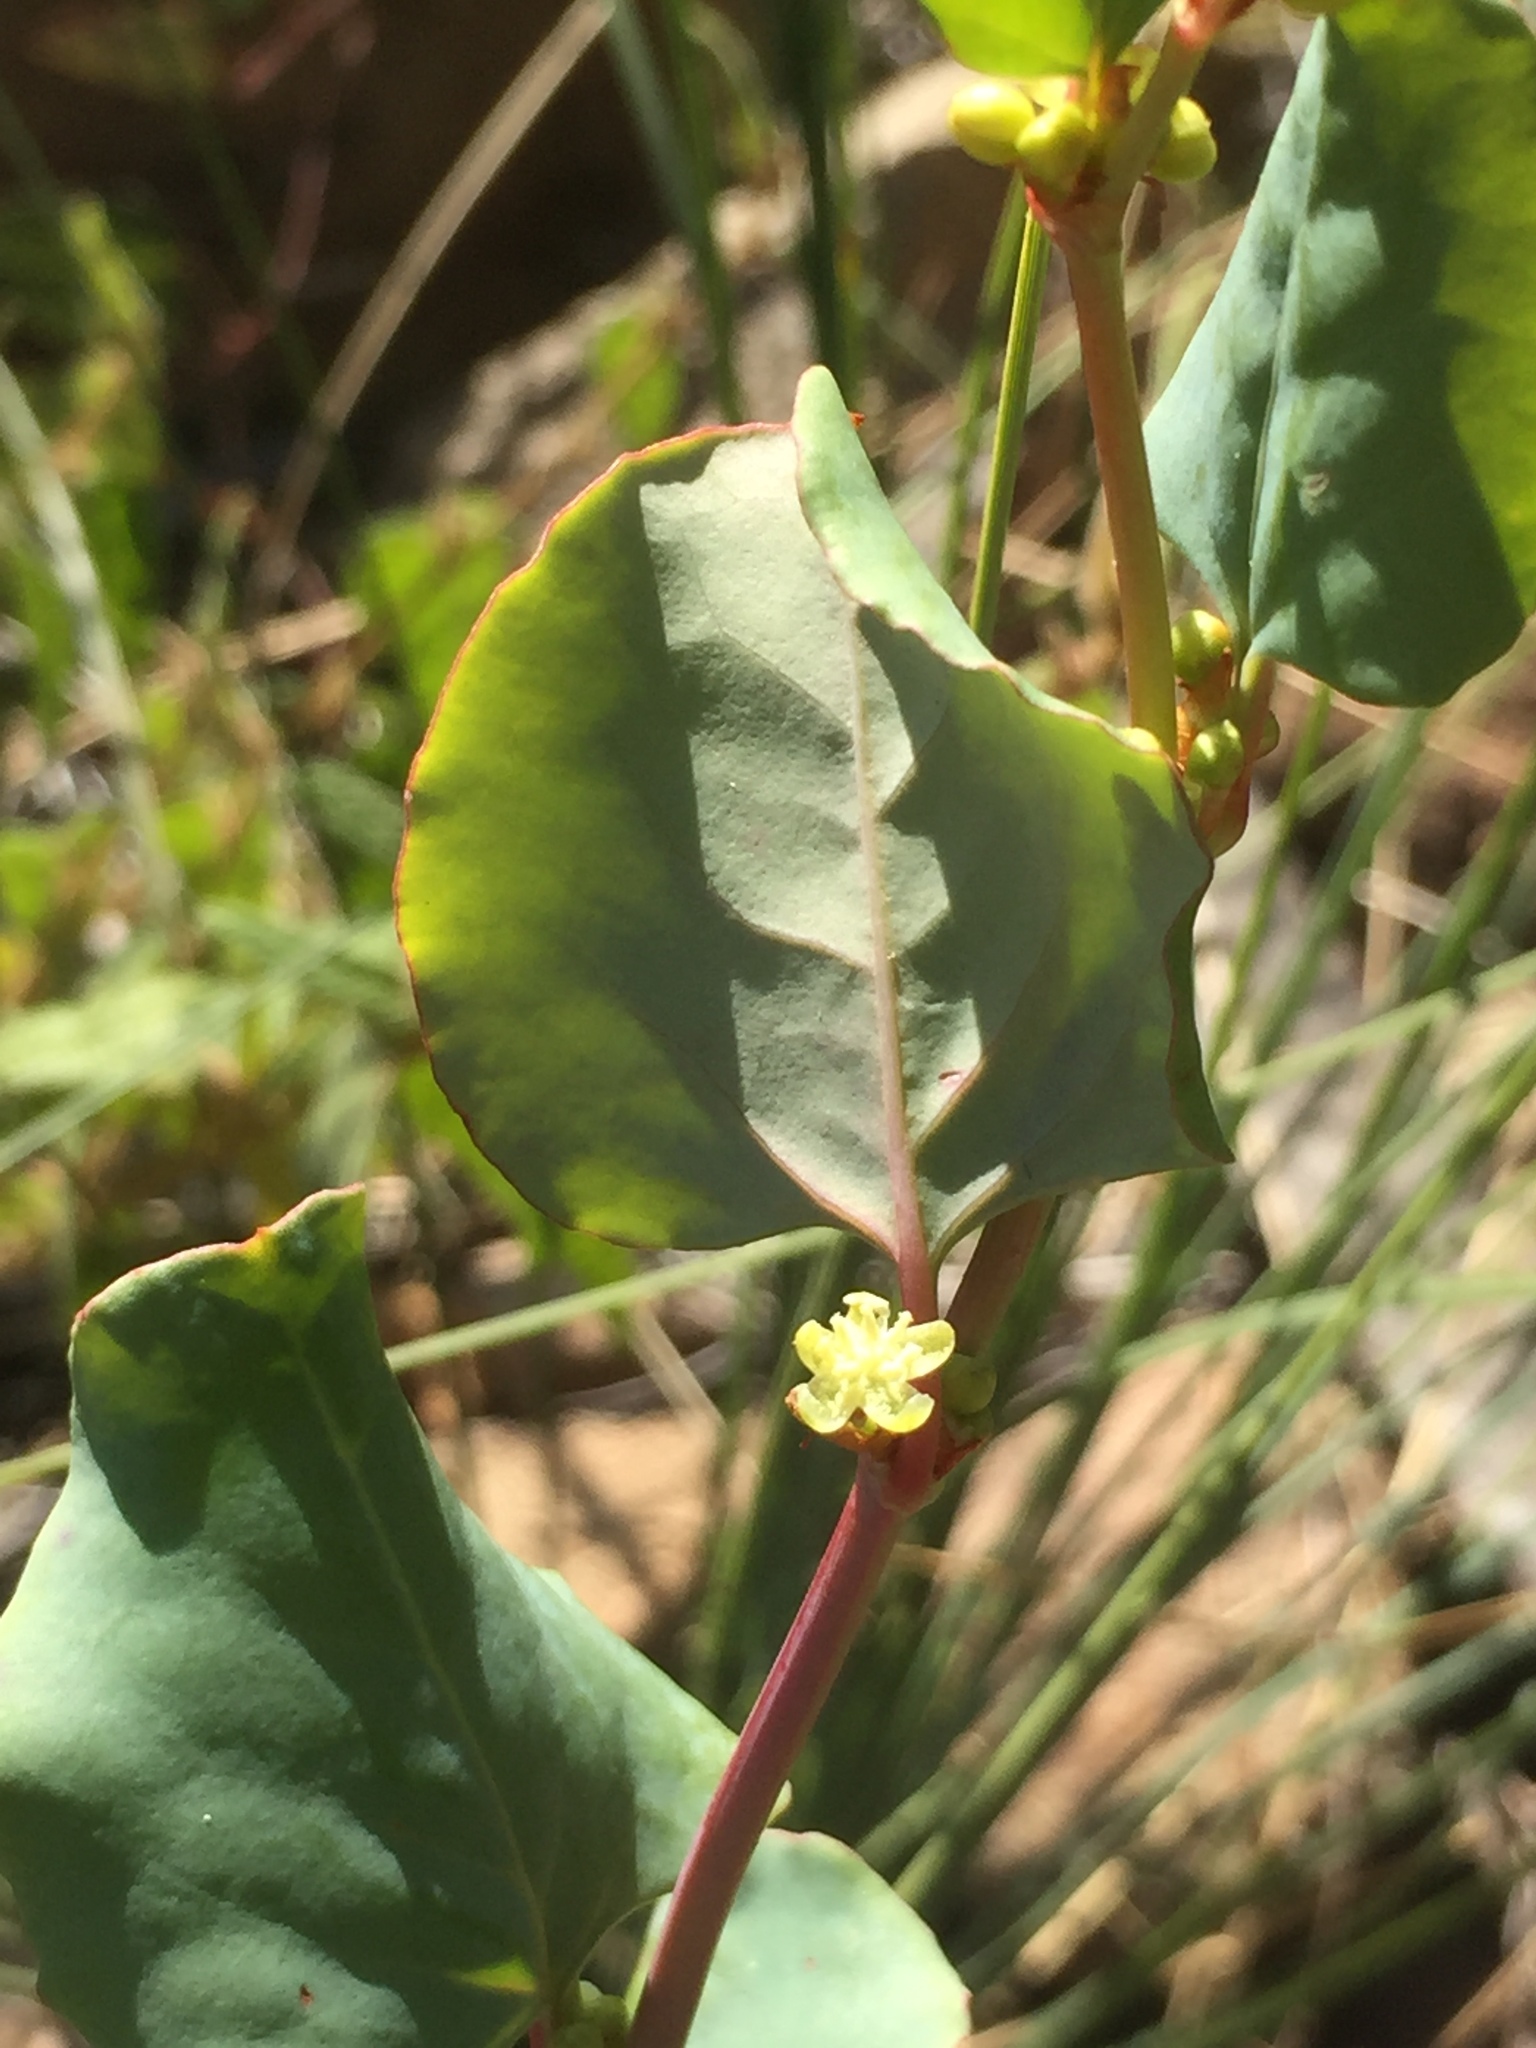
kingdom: Plantae
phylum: Tracheophyta
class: Magnoliopsida
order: Caryophyllales
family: Polygonaceae
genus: Muehlenbeckia
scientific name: Muehlenbeckia rhyticarya
